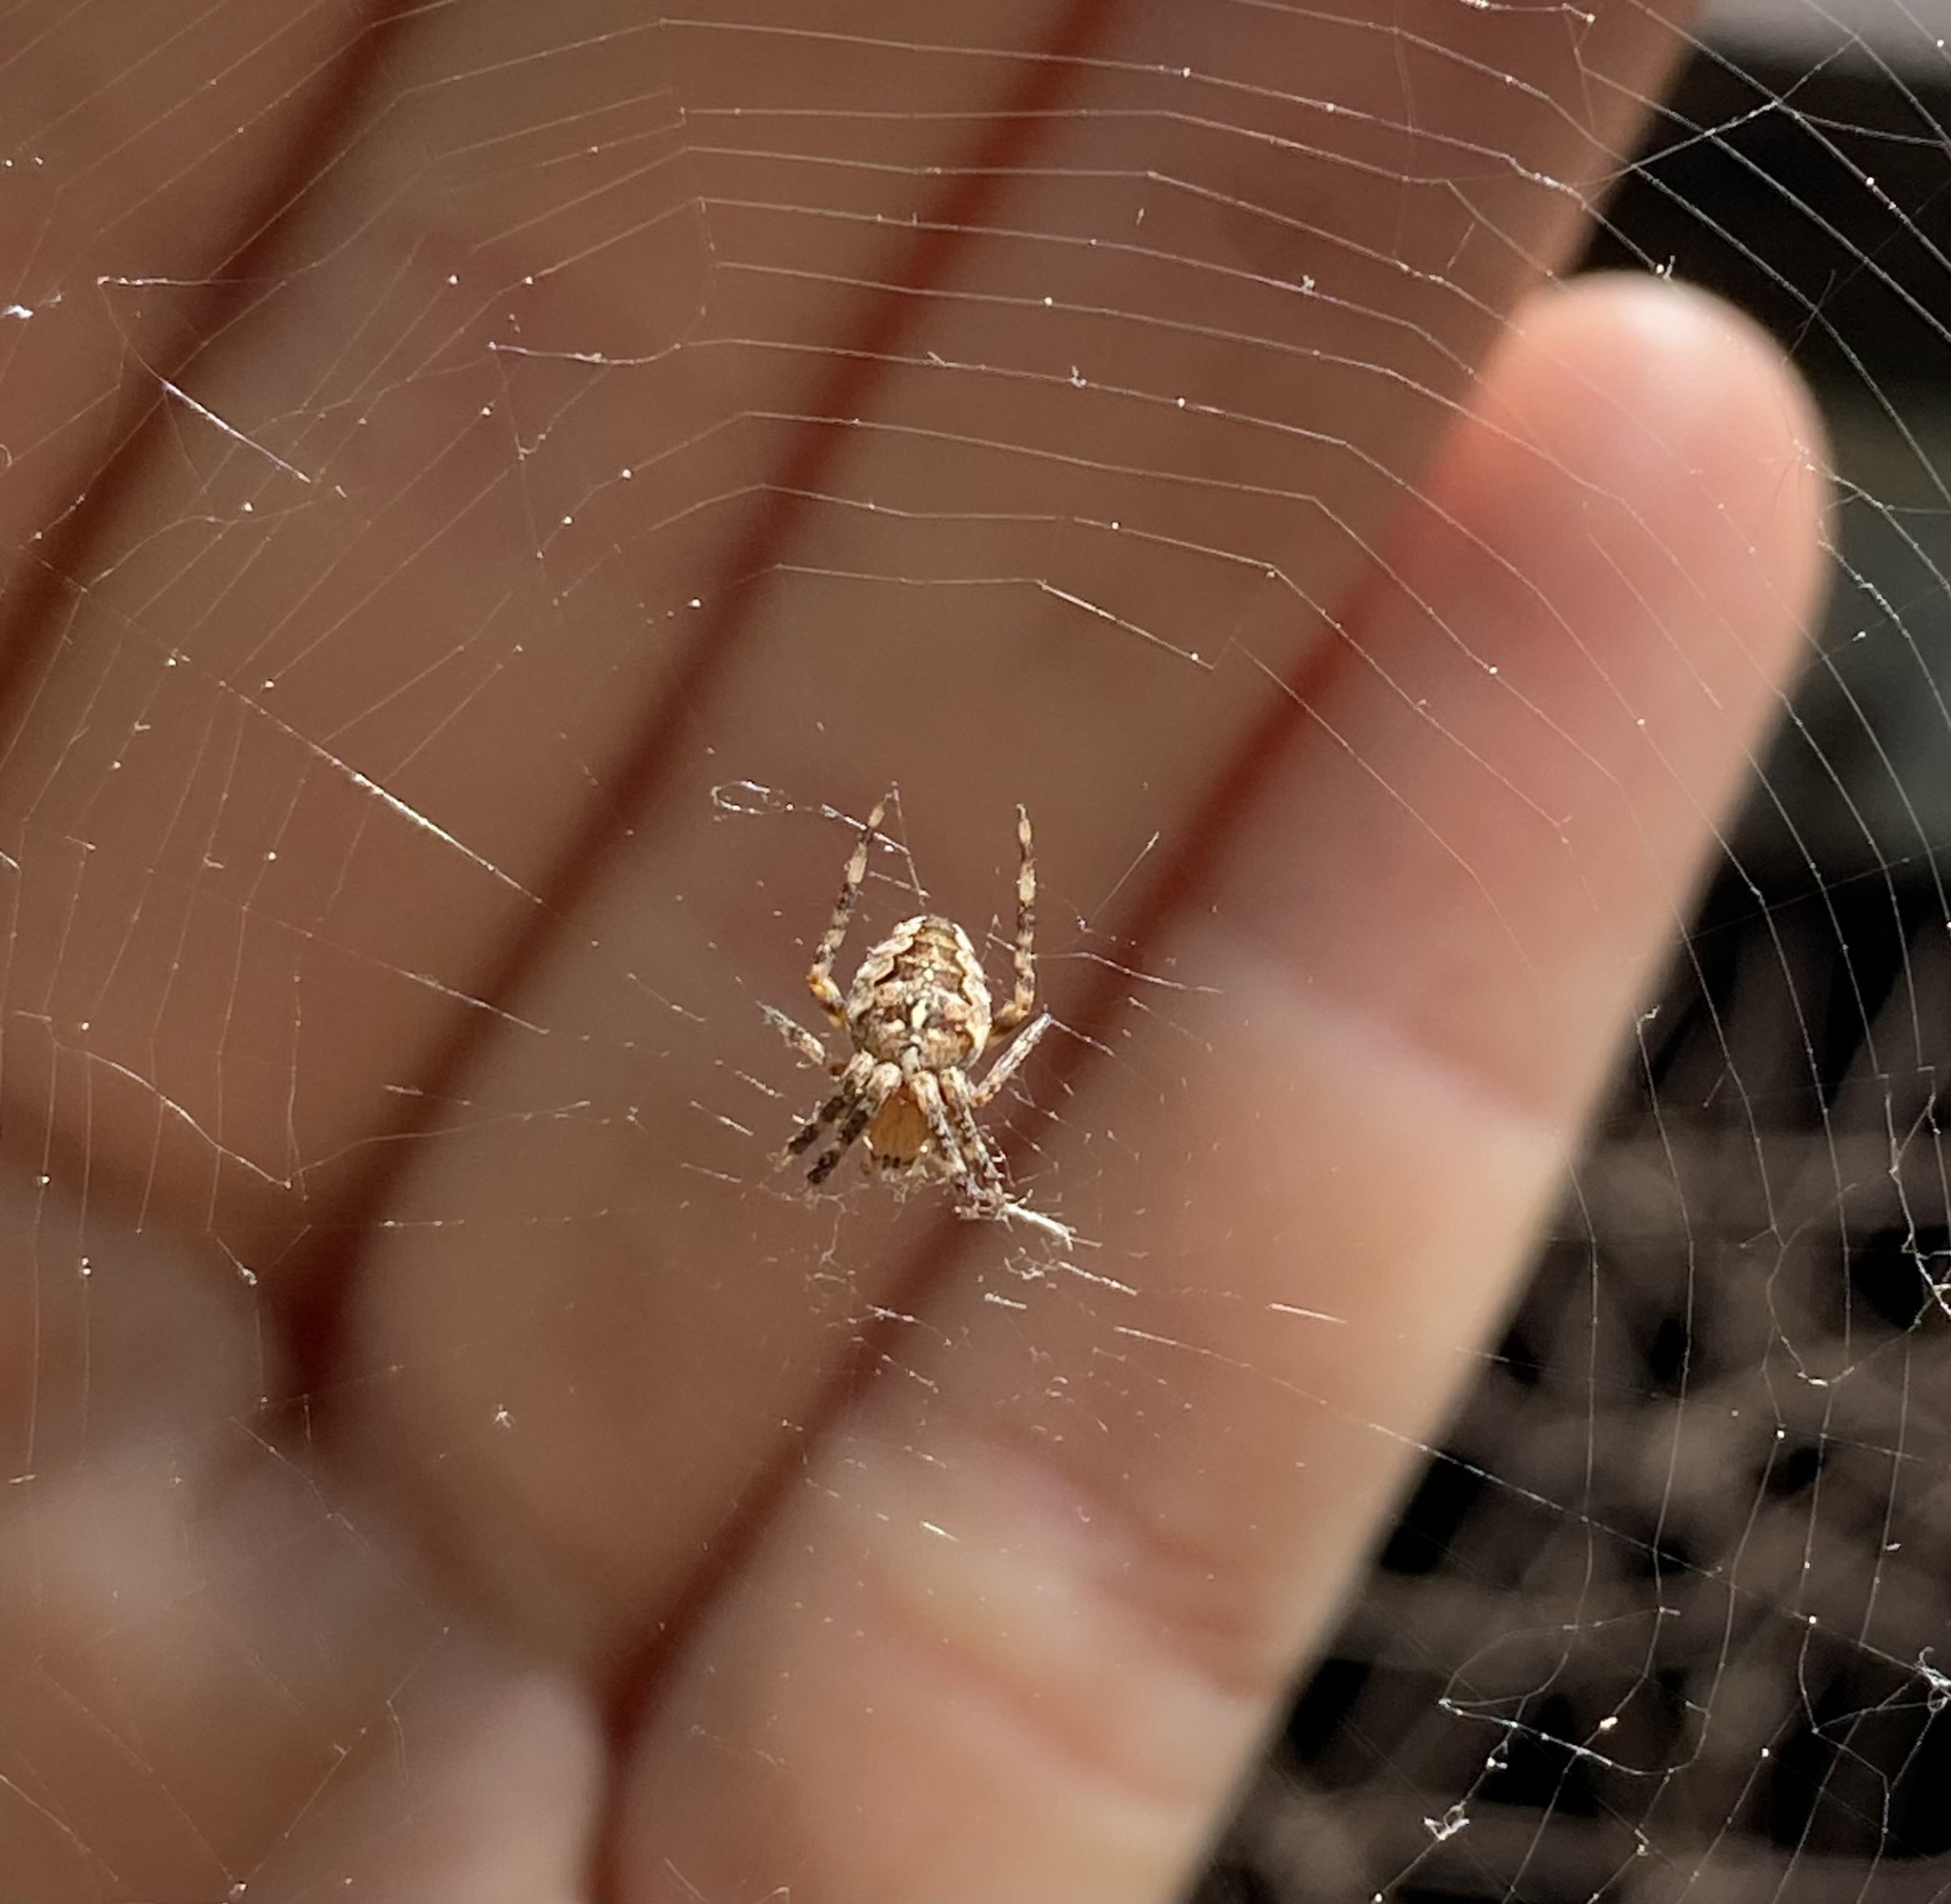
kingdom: Animalia
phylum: Arthropoda
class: Arachnida
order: Araneae
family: Araneidae
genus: Araneus
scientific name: Araneus diadematus
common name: Cross orbweaver
